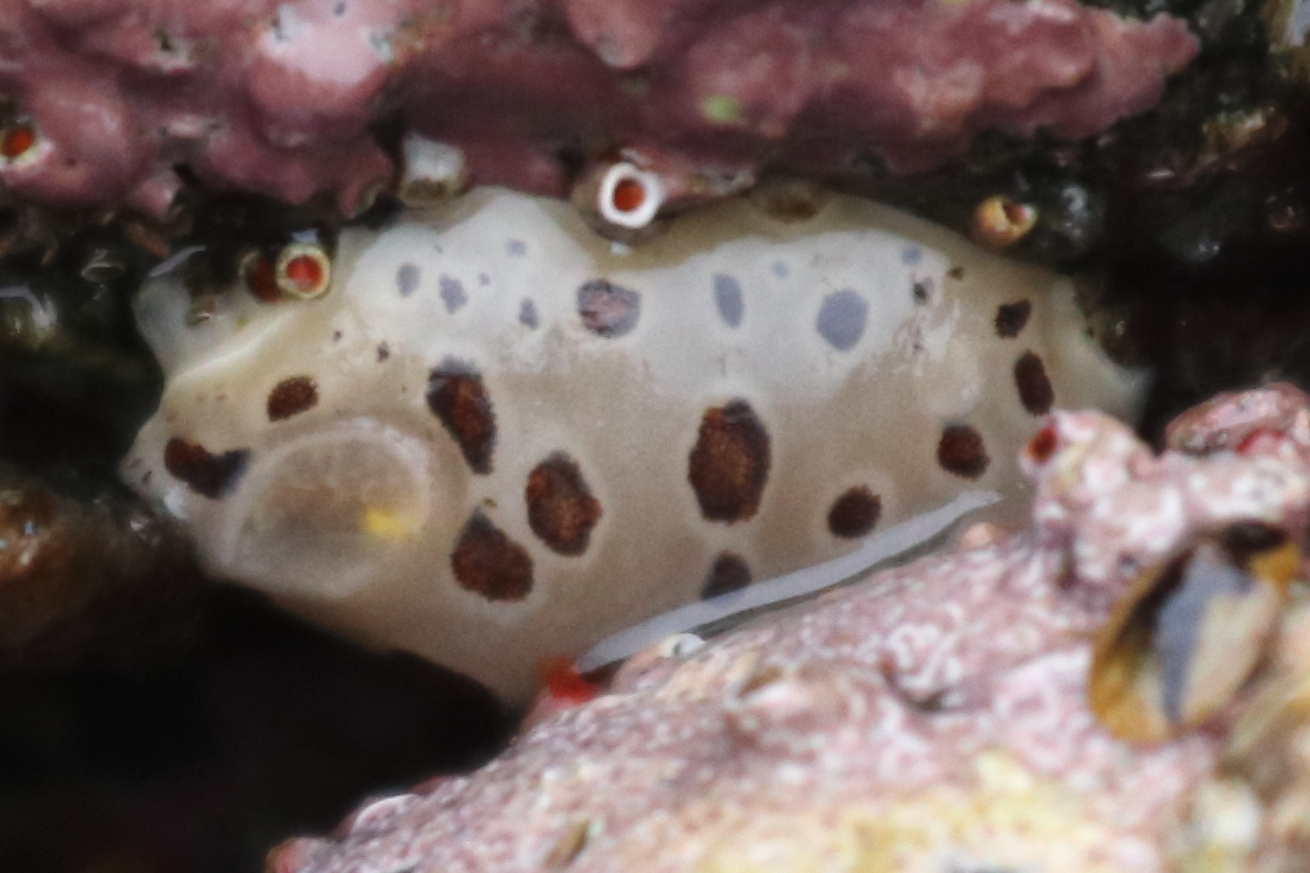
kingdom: Animalia
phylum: Mollusca
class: Gastropoda
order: Nudibranchia
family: Discodorididae
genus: Diaulula
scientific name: Diaulula odonoghuei
